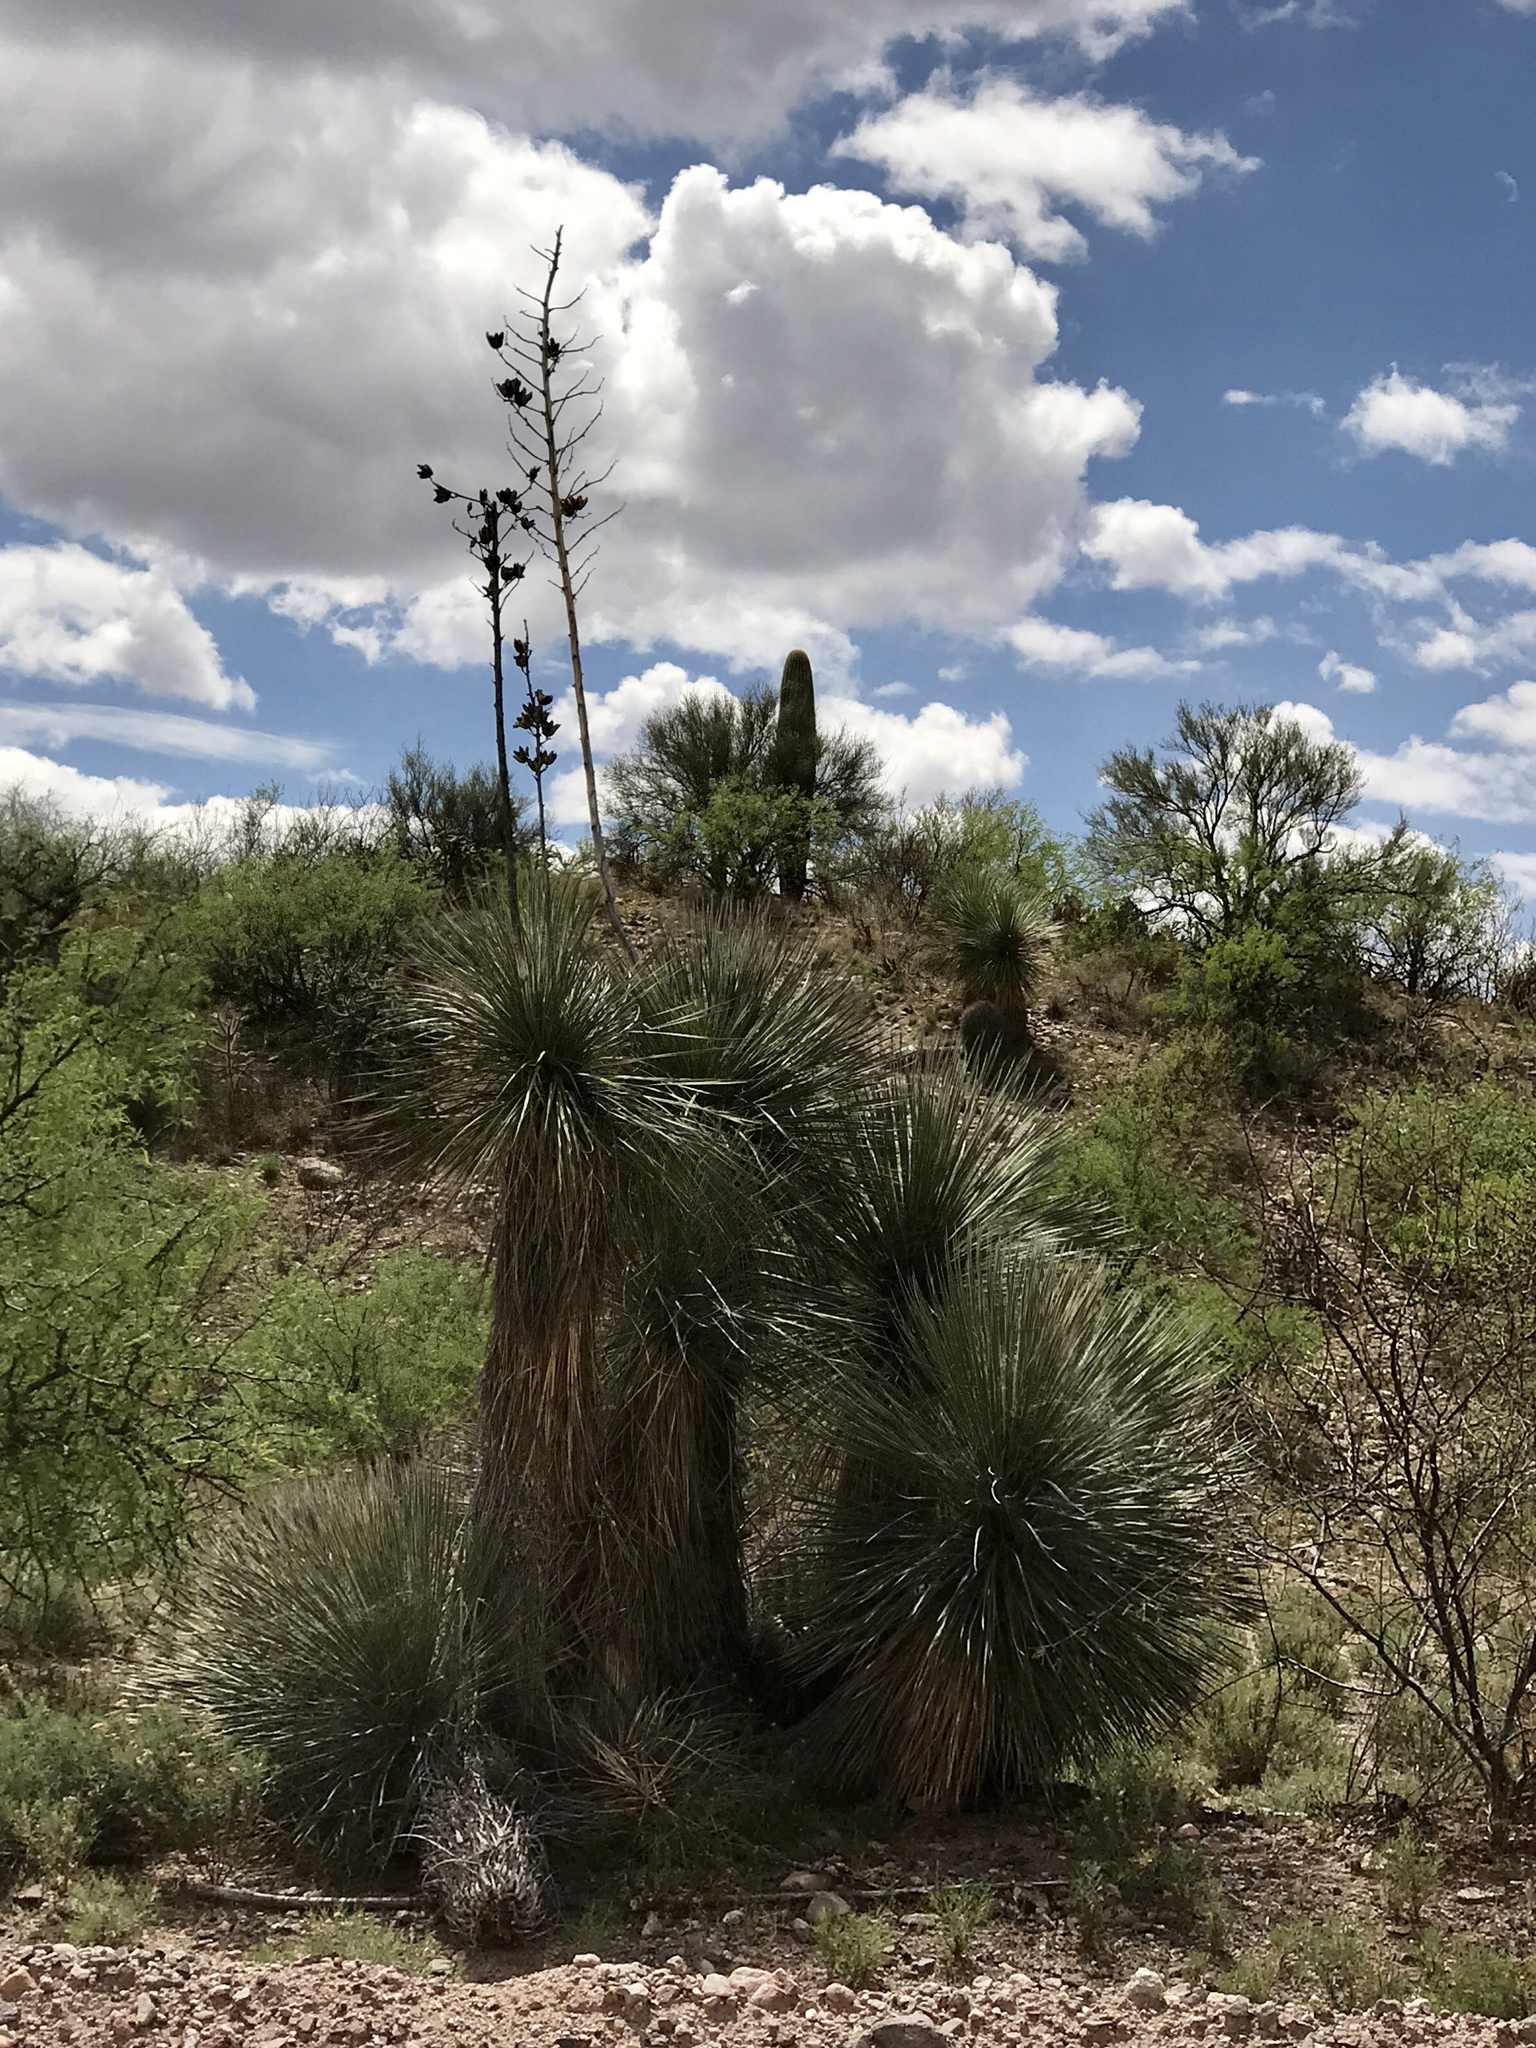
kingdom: Plantae
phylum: Tracheophyta
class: Liliopsida
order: Asparagales
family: Asparagaceae
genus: Yucca
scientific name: Yucca elata
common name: Palmella
